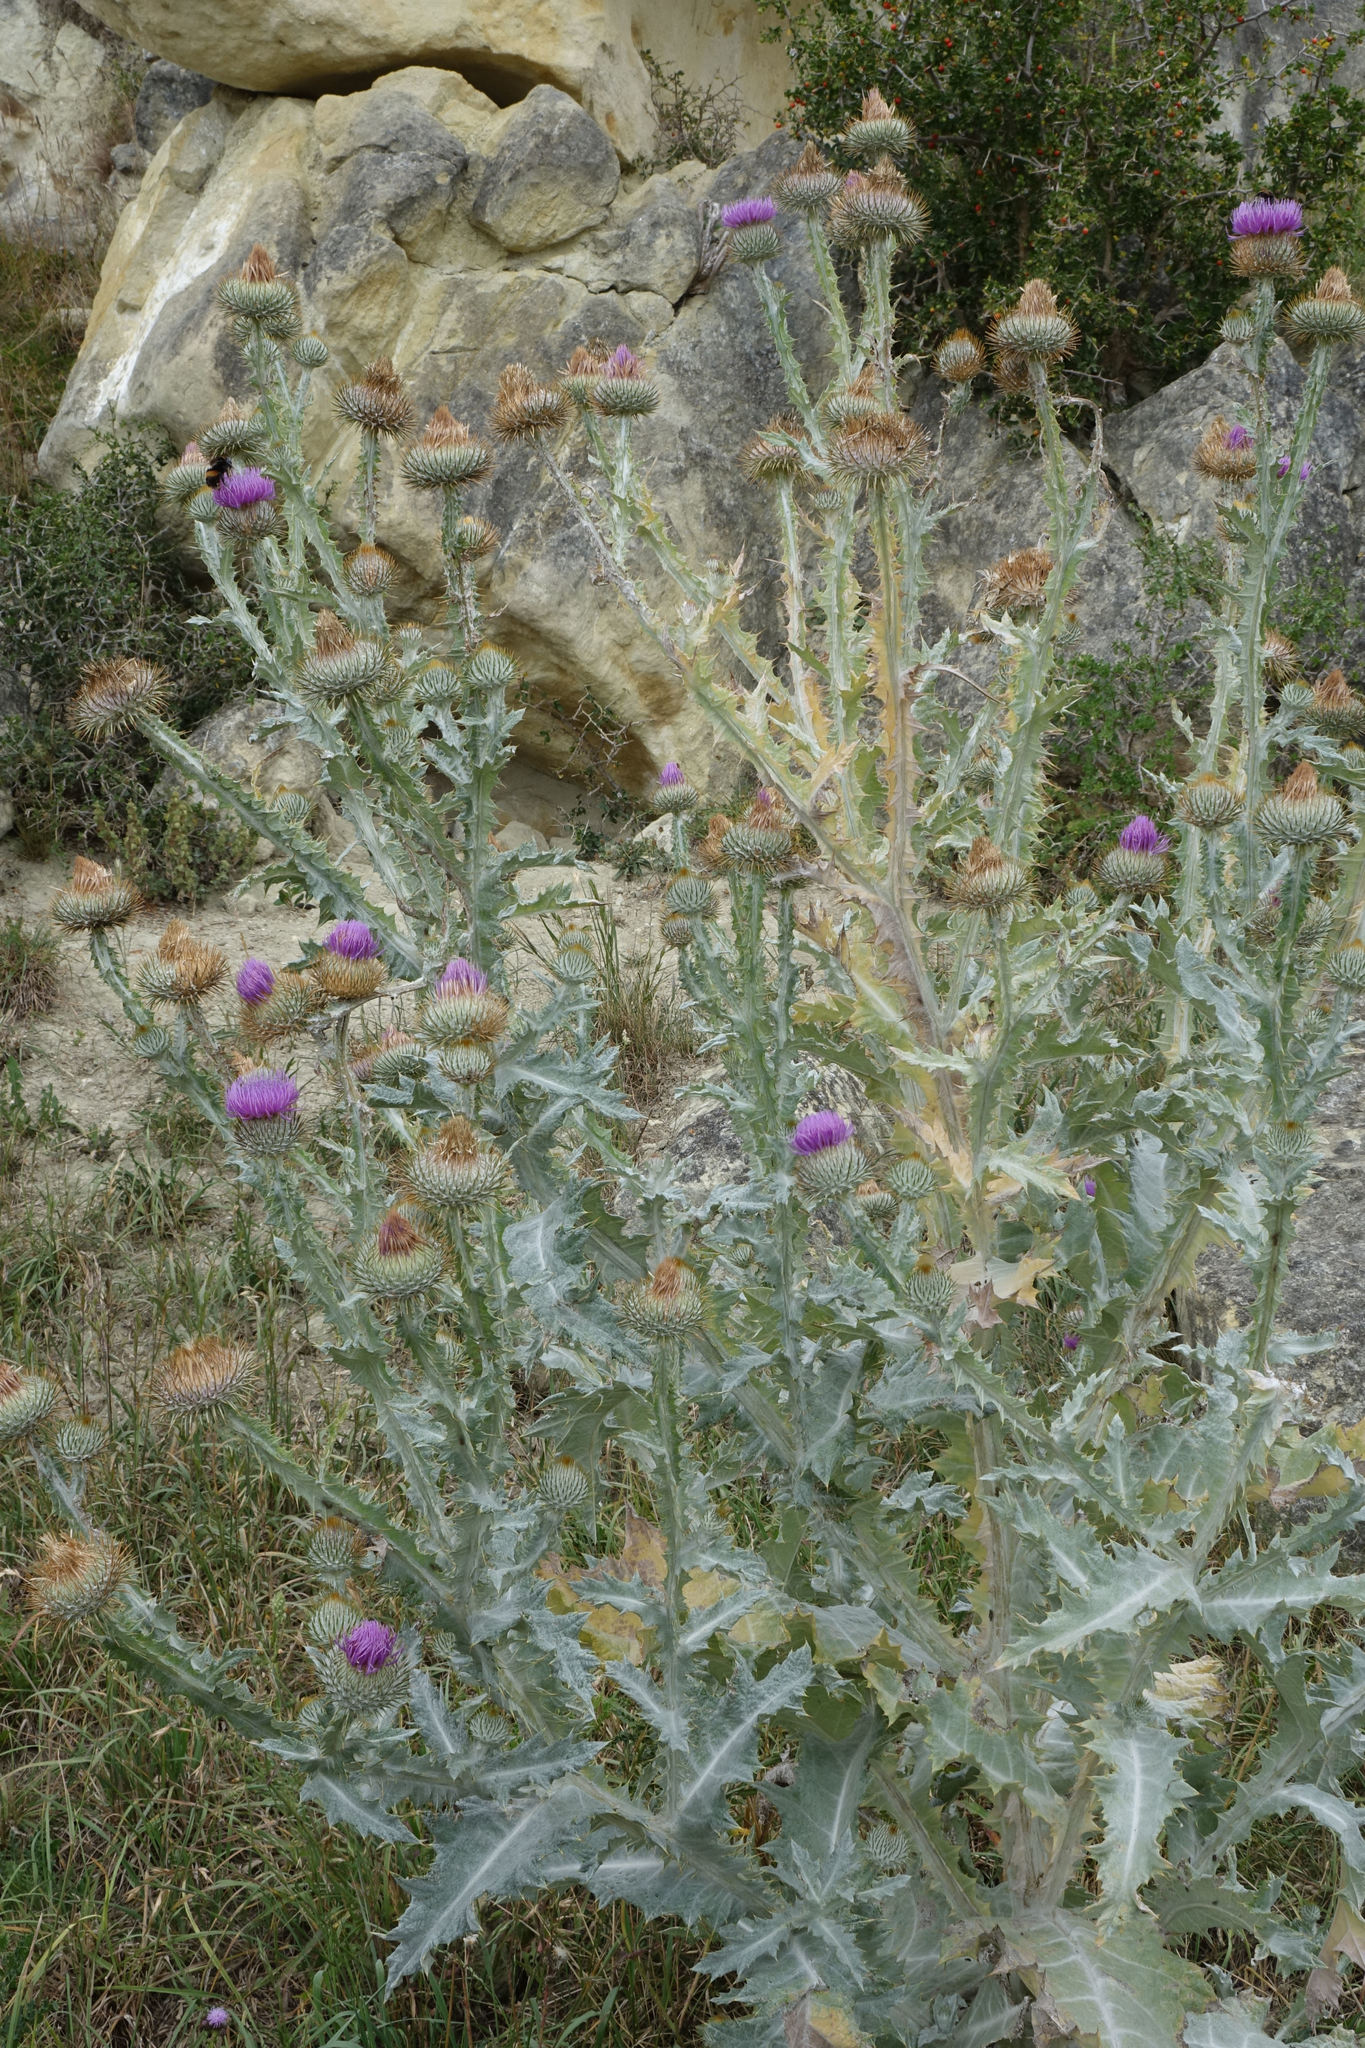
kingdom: Plantae
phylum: Tracheophyta
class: Magnoliopsida
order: Asterales
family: Asteraceae
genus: Onopordum
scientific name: Onopordum acanthium
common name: Scotch thistle
